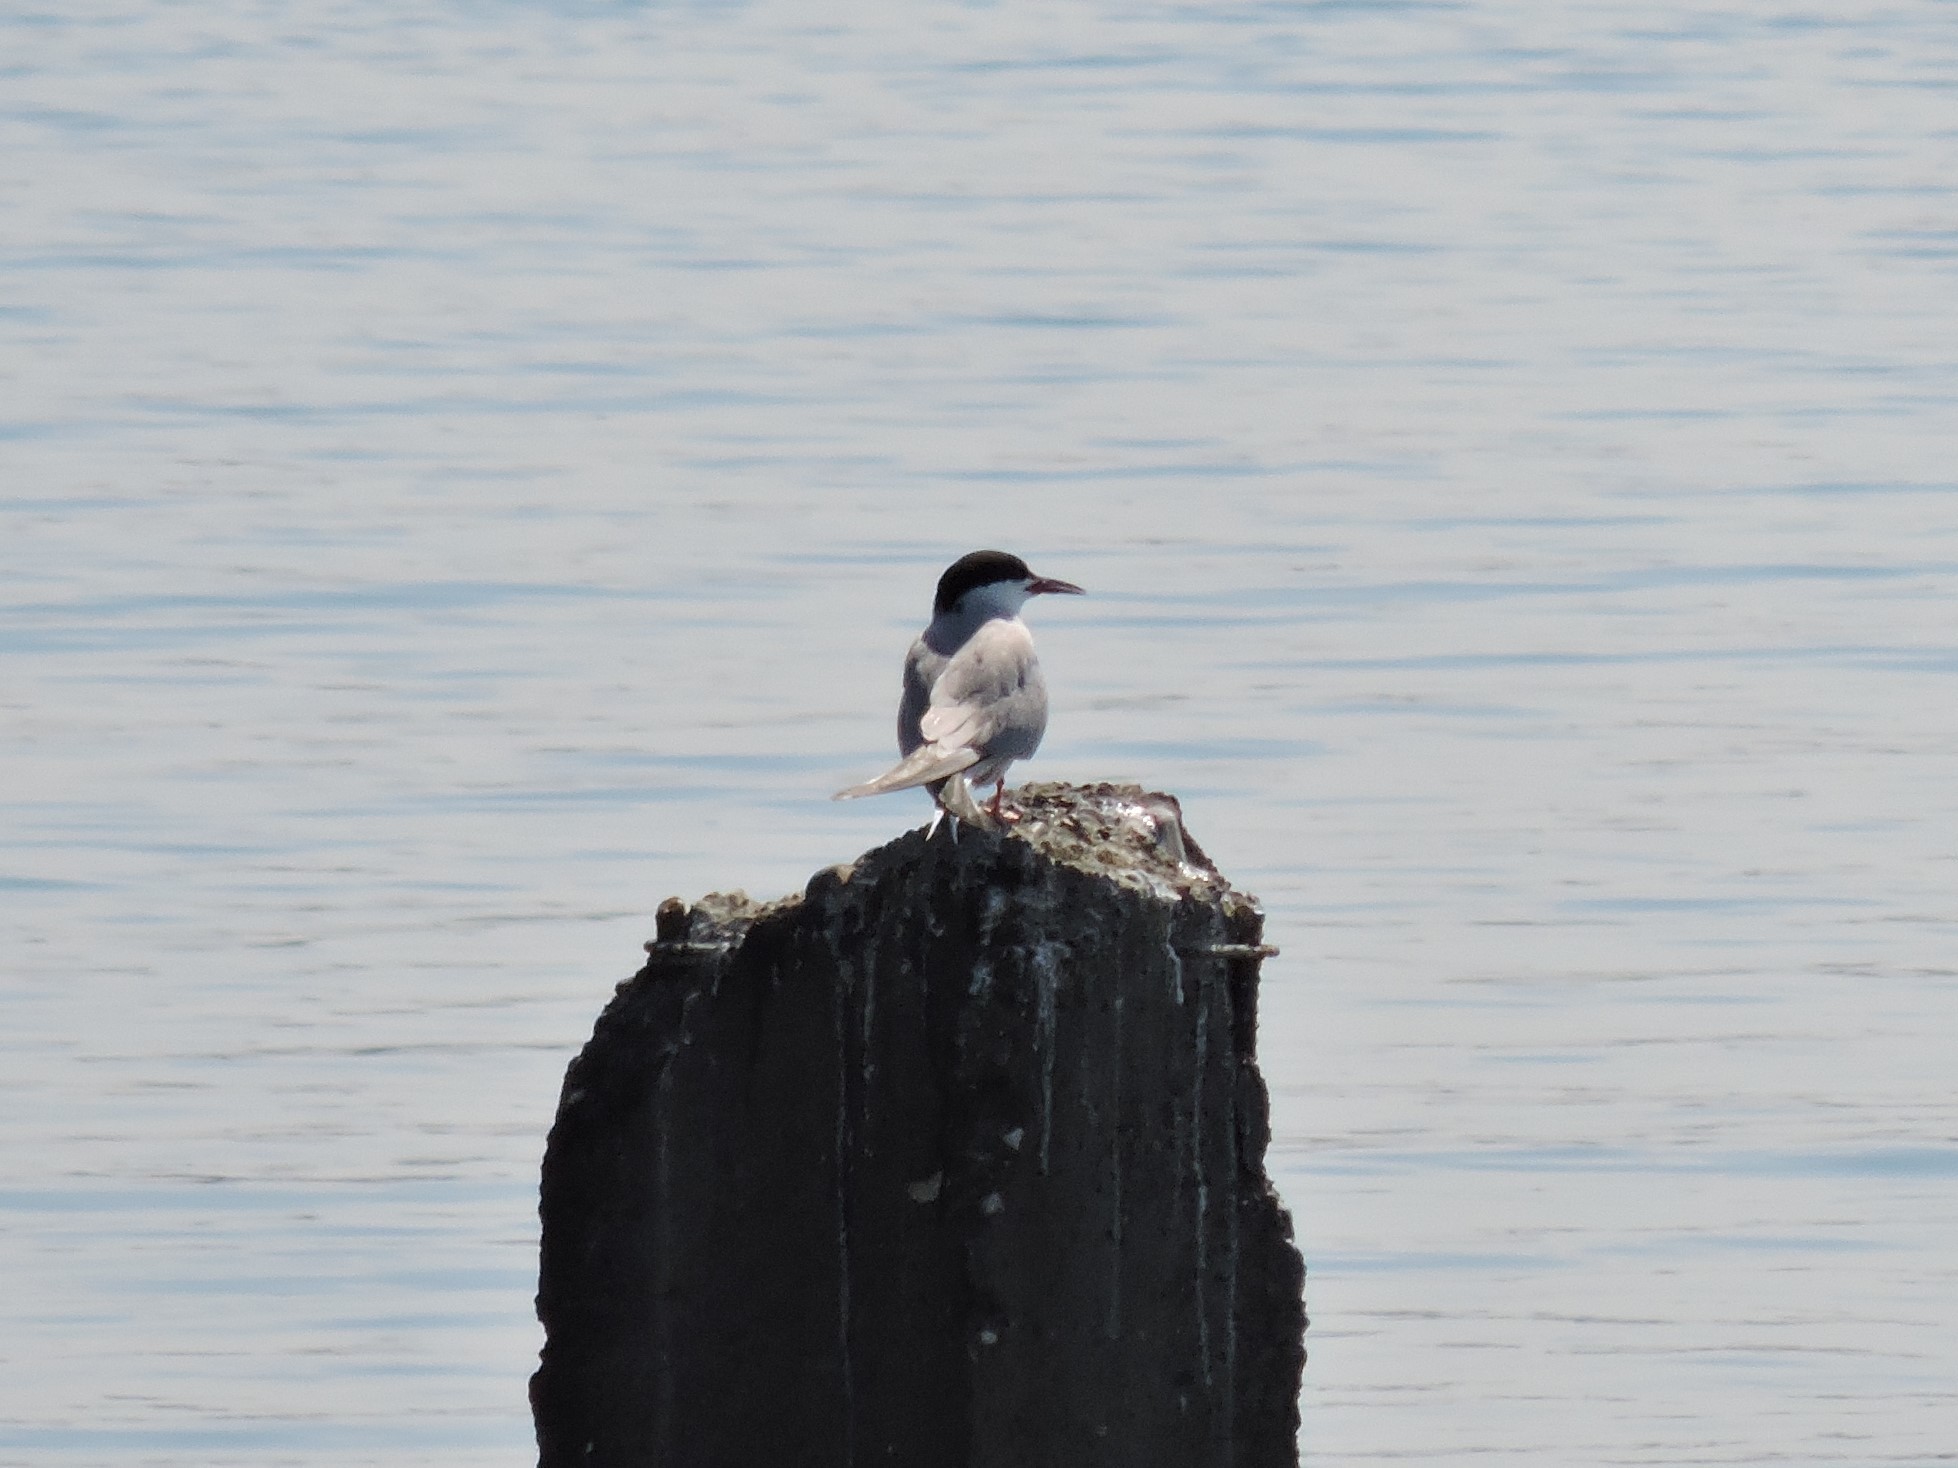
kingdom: Animalia
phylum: Chordata
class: Aves
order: Charadriiformes
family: Laridae
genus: Sterna
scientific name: Sterna hirundo
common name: Common tern
